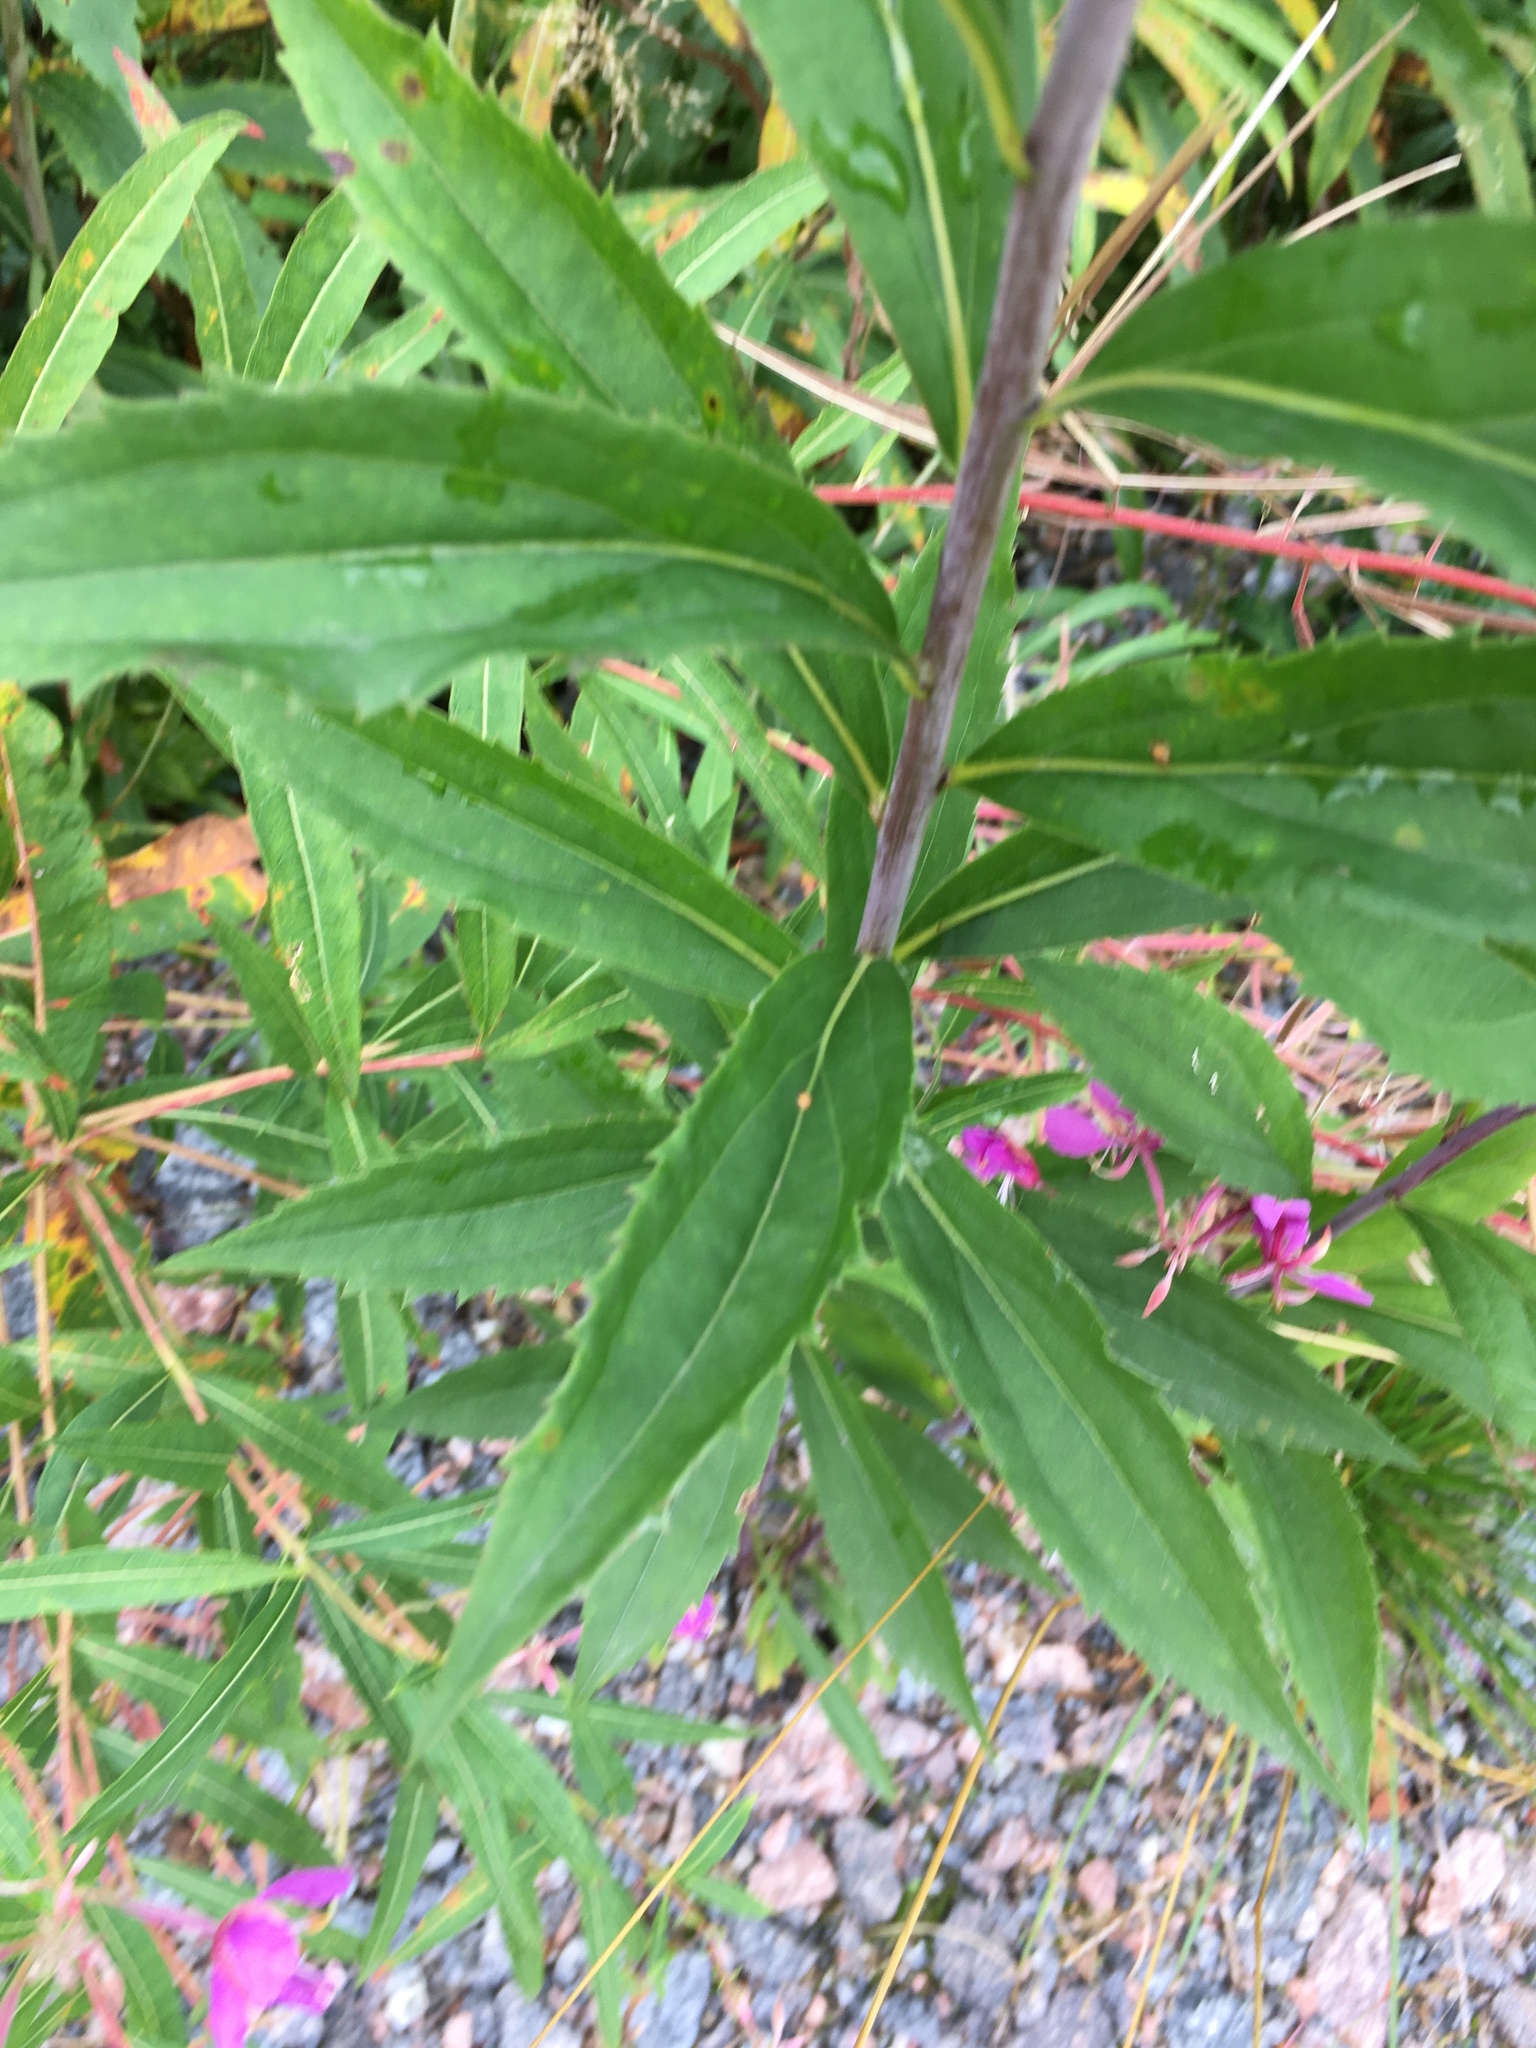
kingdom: Plantae
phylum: Tracheophyta
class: Magnoliopsida
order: Asterales
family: Asteraceae
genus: Solidago
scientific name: Solidago gigantea
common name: Giant goldenrod
